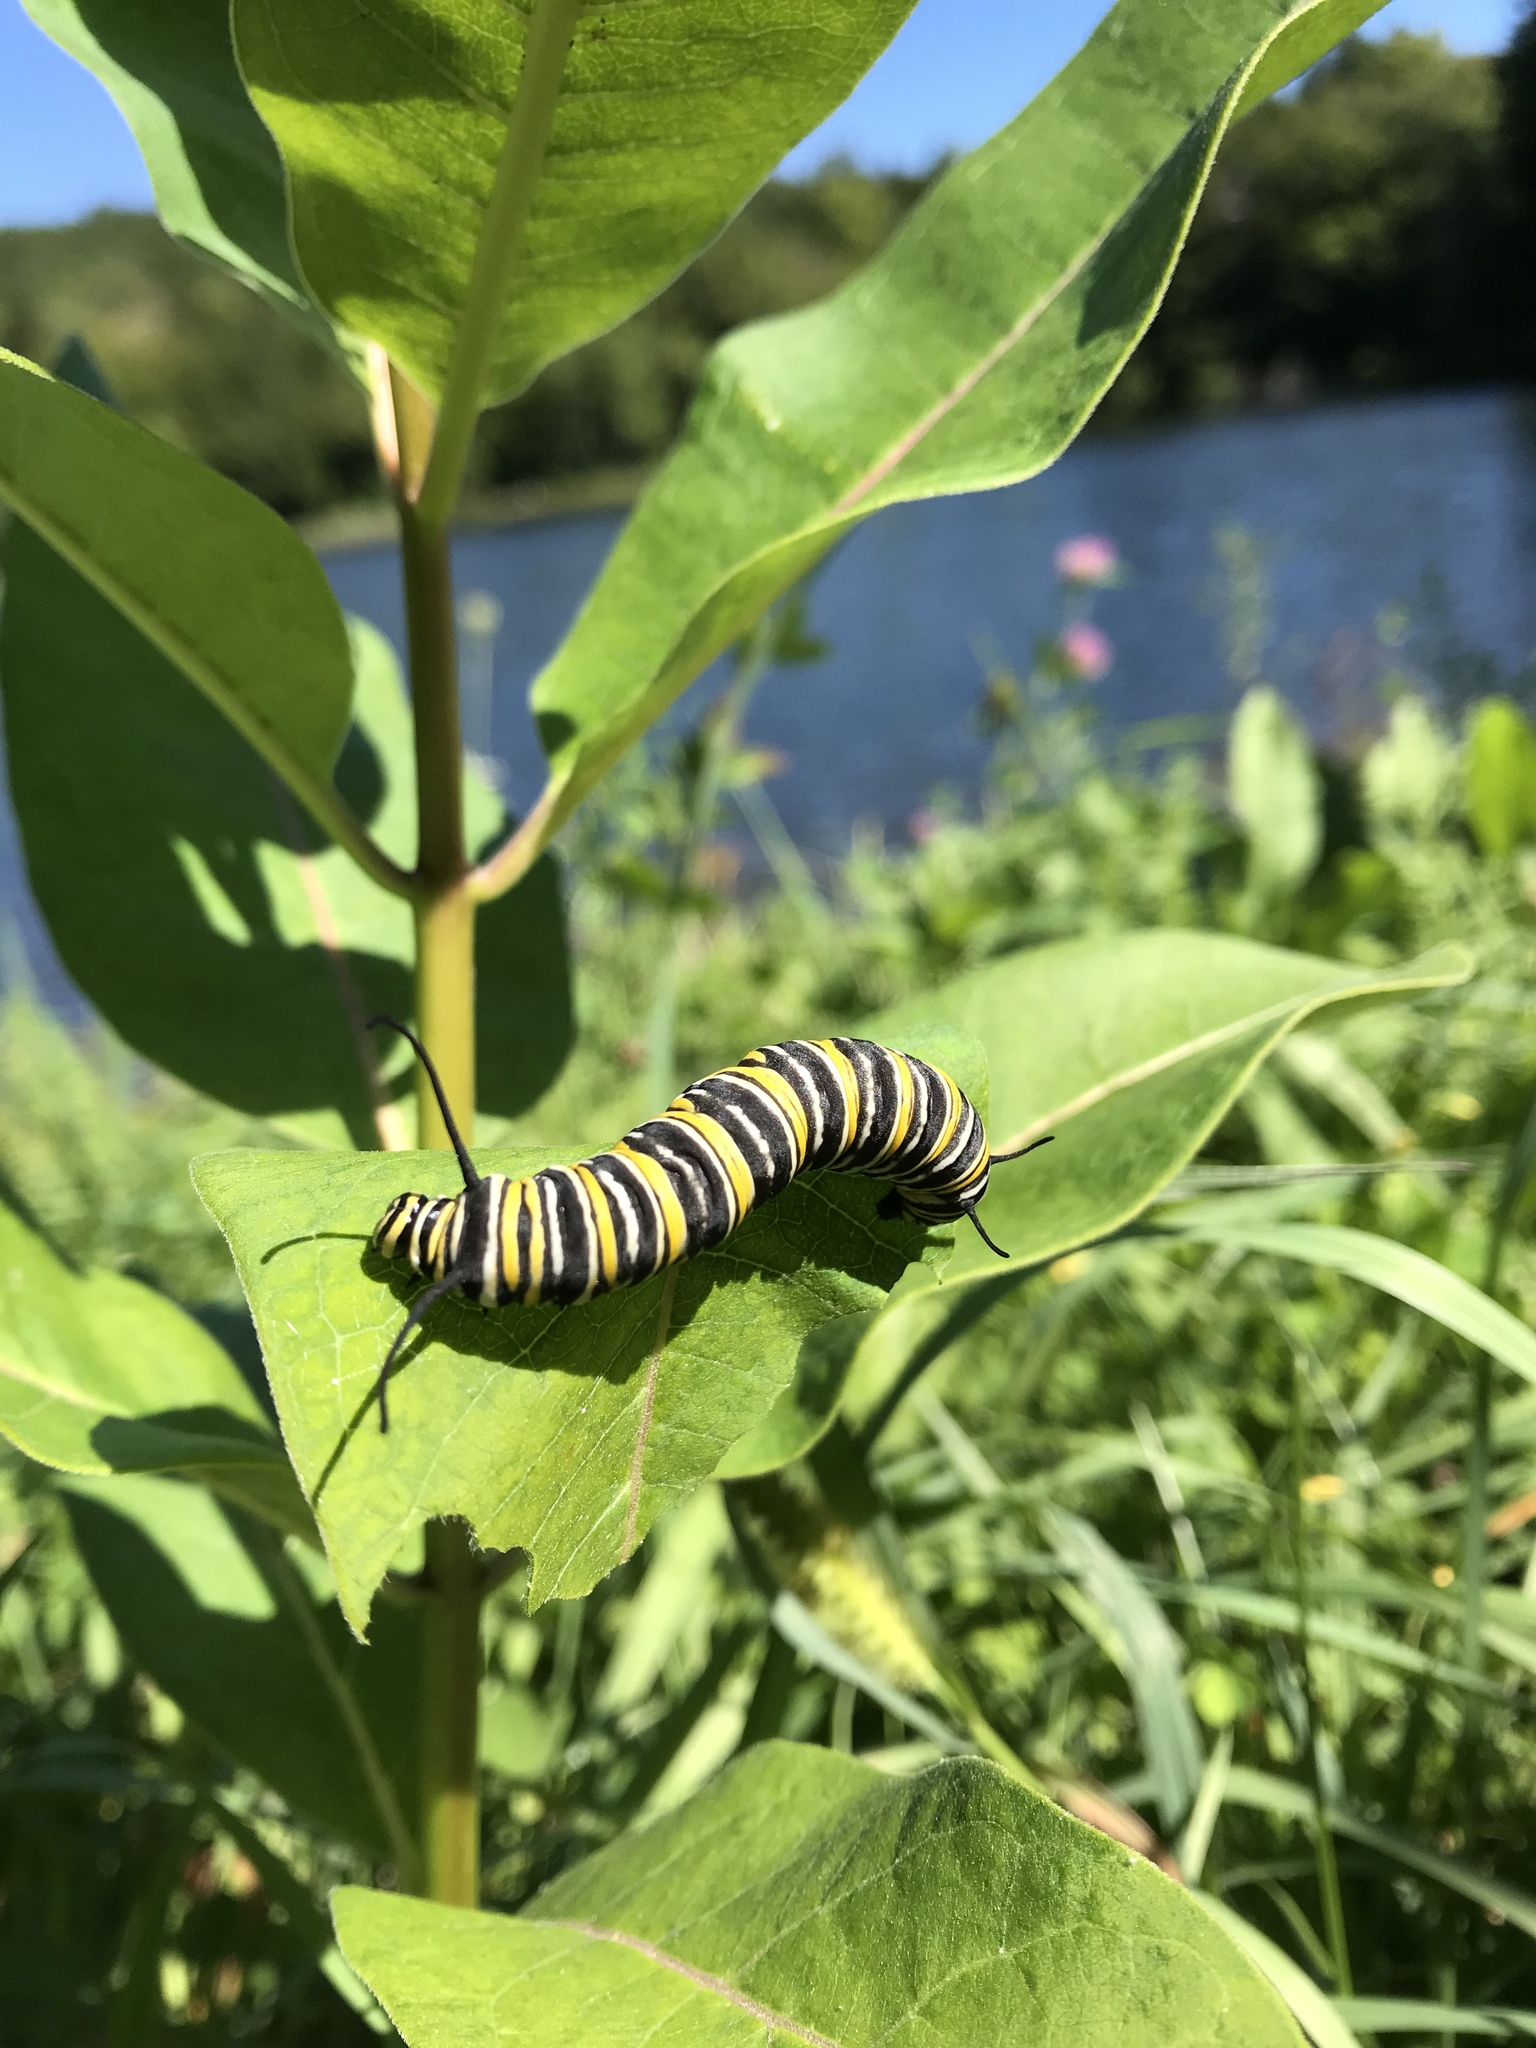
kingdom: Animalia
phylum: Arthropoda
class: Insecta
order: Lepidoptera
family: Nymphalidae
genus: Danaus
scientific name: Danaus plexippus
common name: Monarch
